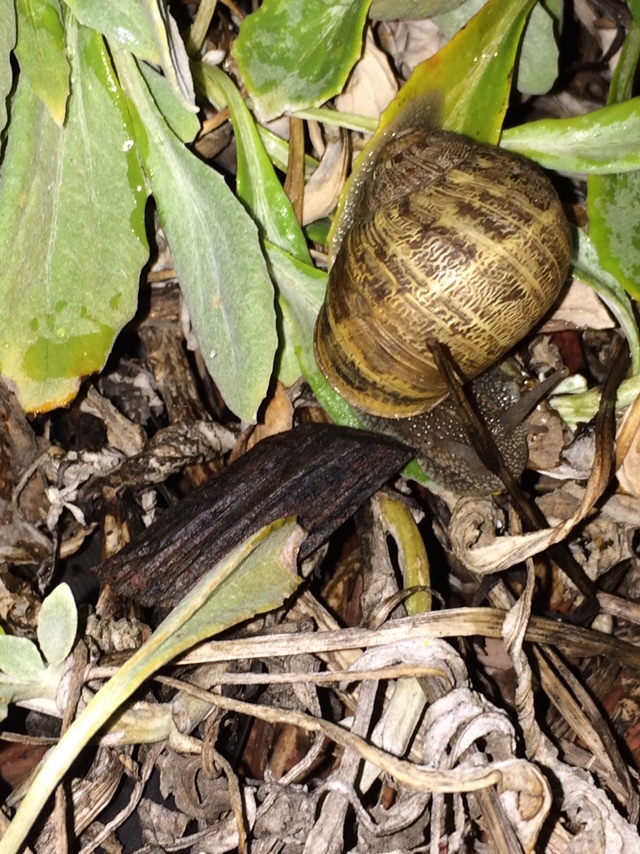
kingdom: Animalia
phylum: Mollusca
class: Gastropoda
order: Stylommatophora
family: Helicidae
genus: Cornu
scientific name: Cornu aspersum
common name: Brown garden snail
